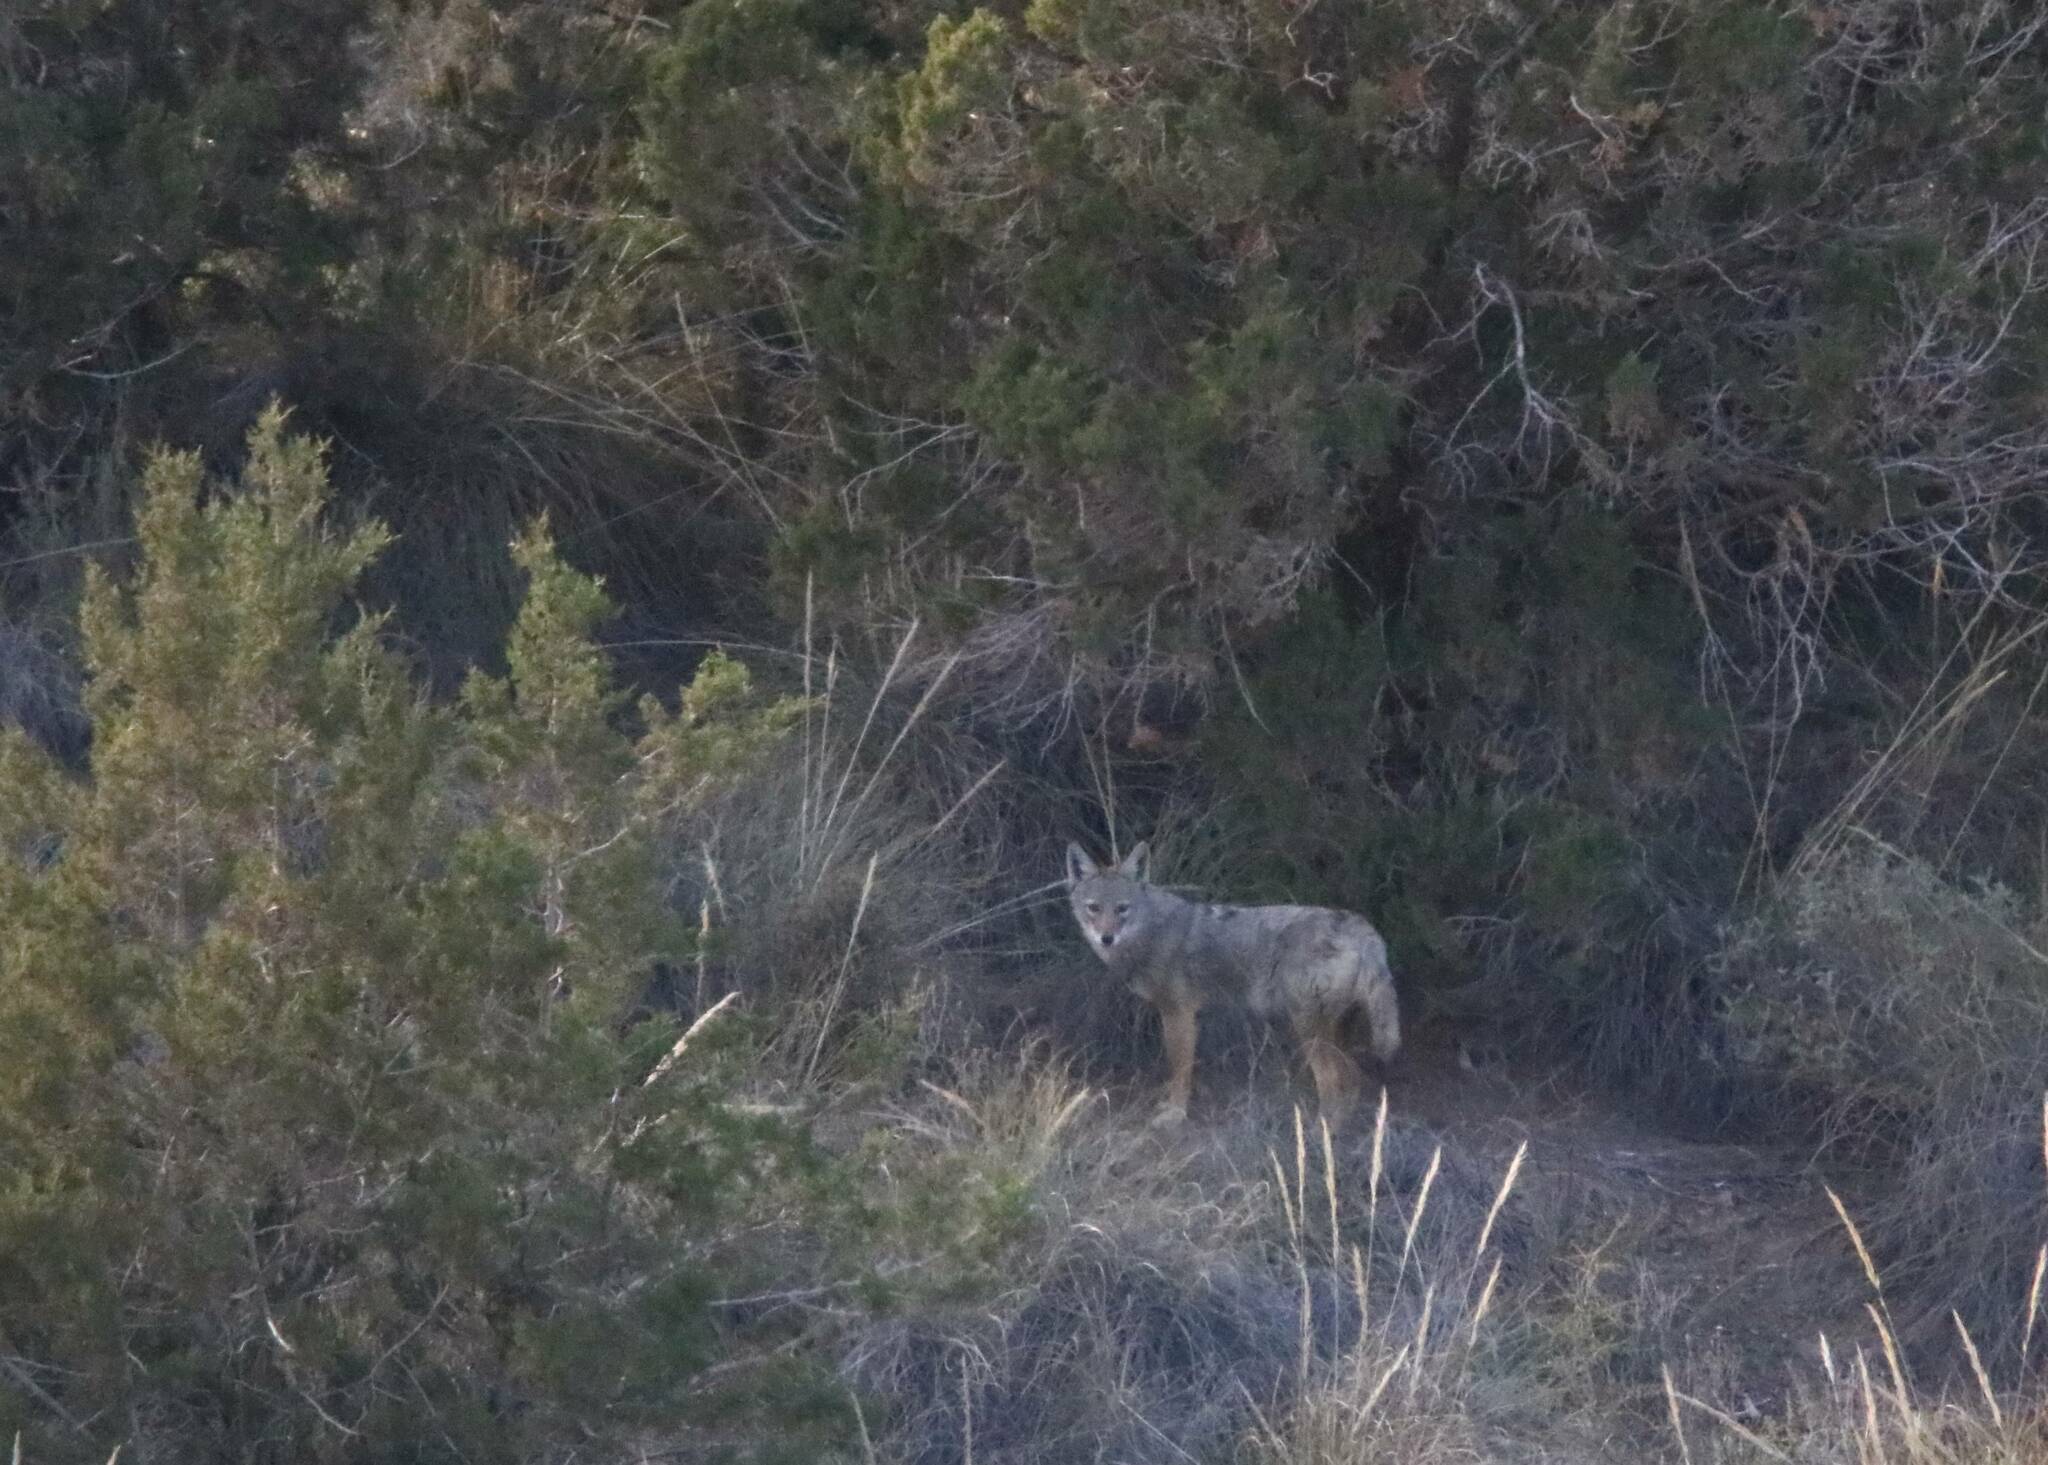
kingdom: Animalia
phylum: Chordata
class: Mammalia
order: Carnivora
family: Canidae
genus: Canis
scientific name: Canis lupaster
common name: African golden wolf
